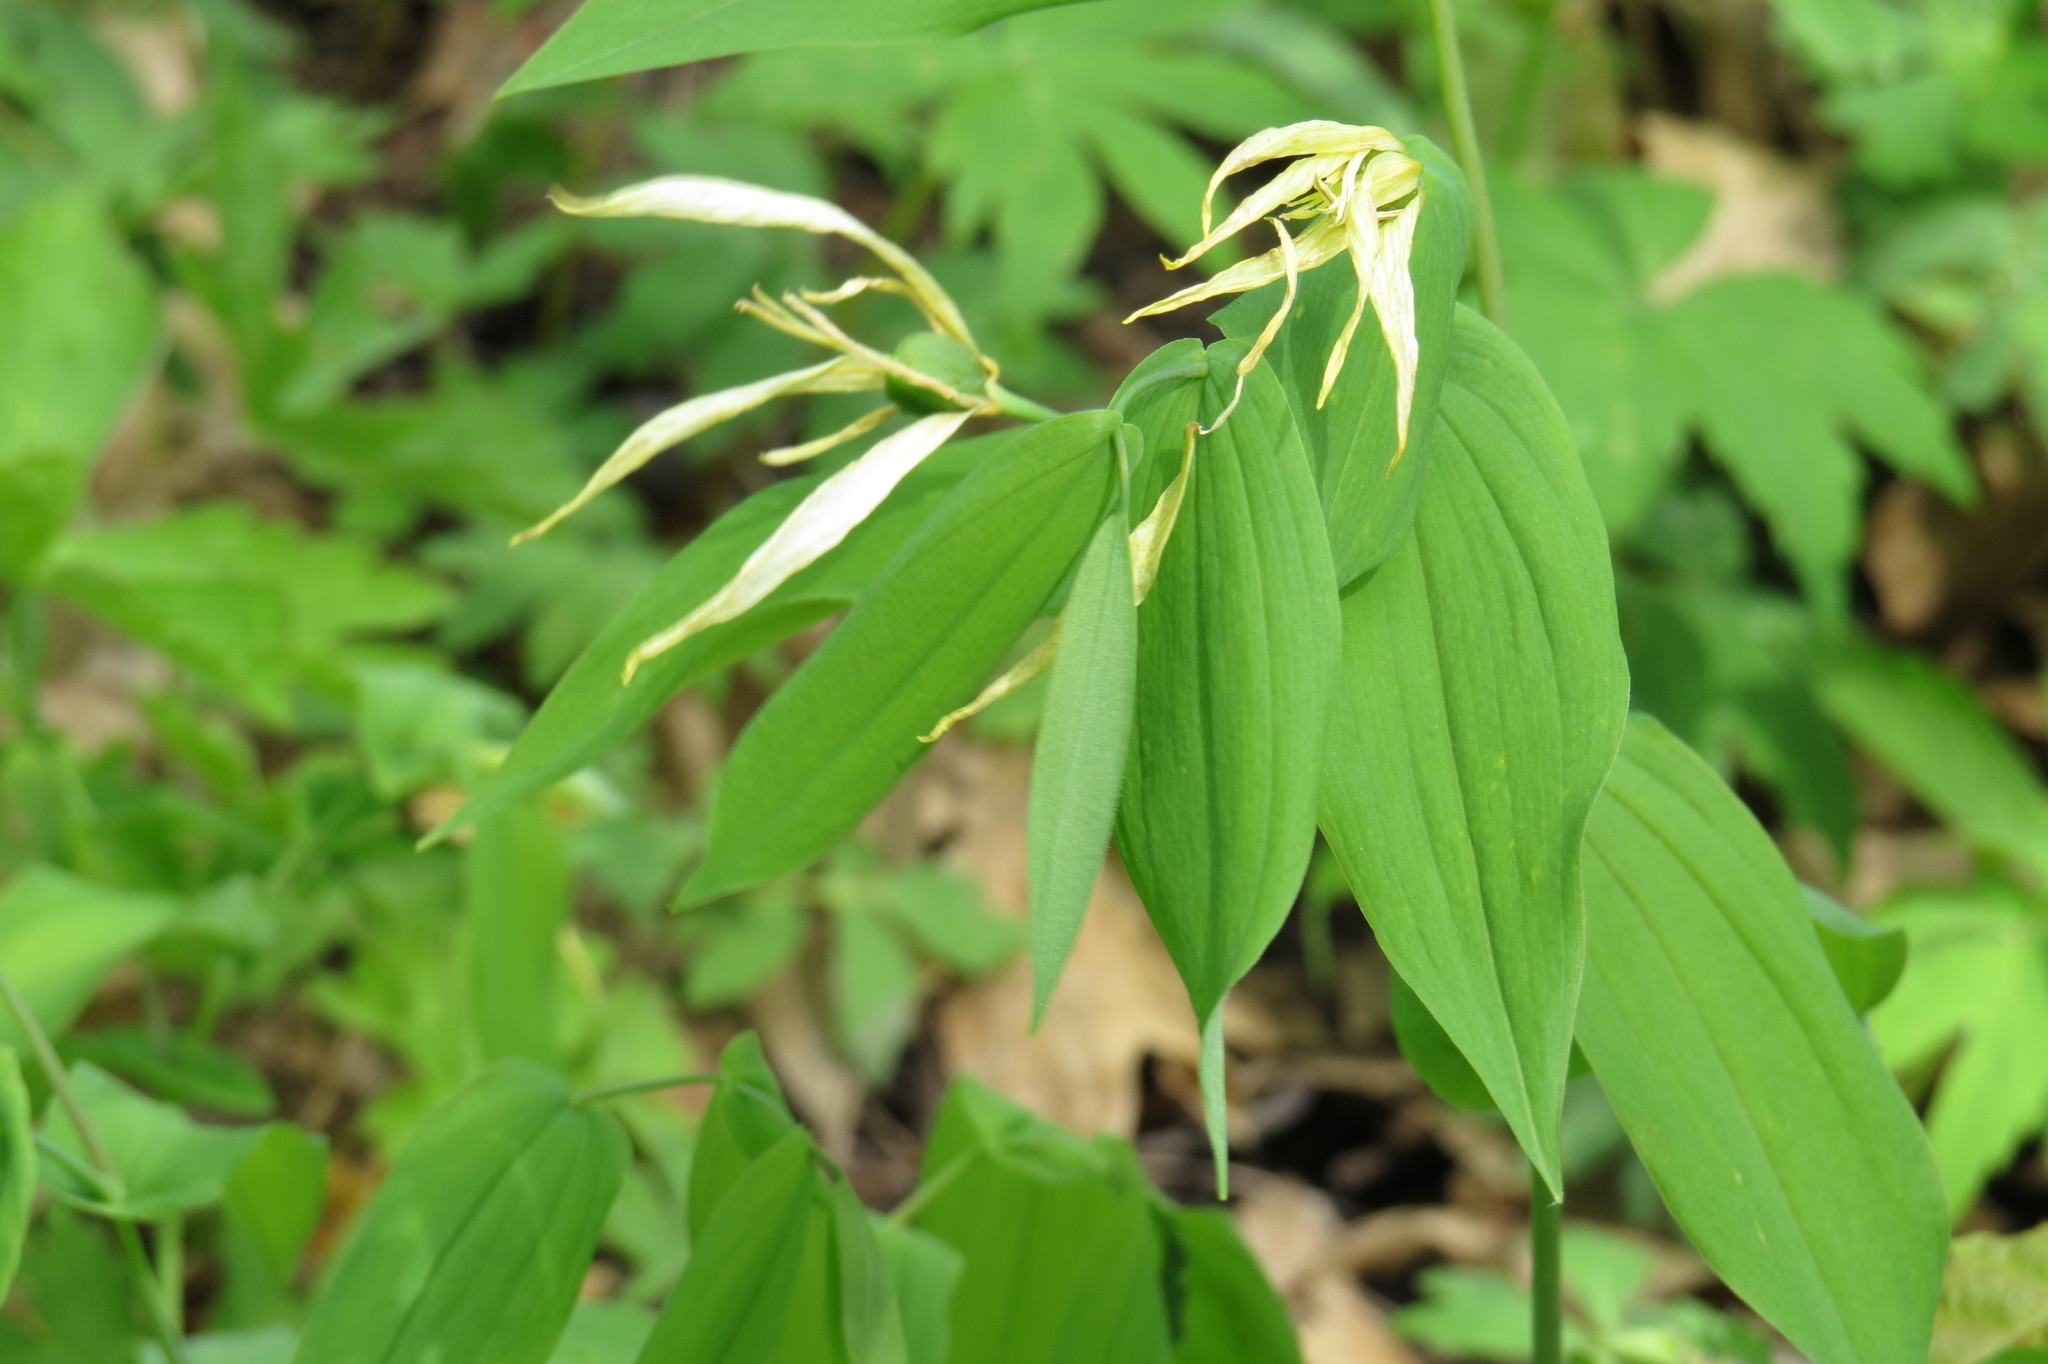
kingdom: Plantae
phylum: Tracheophyta
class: Liliopsida
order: Liliales
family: Colchicaceae
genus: Uvularia
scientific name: Uvularia grandiflora
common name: Bellwort
